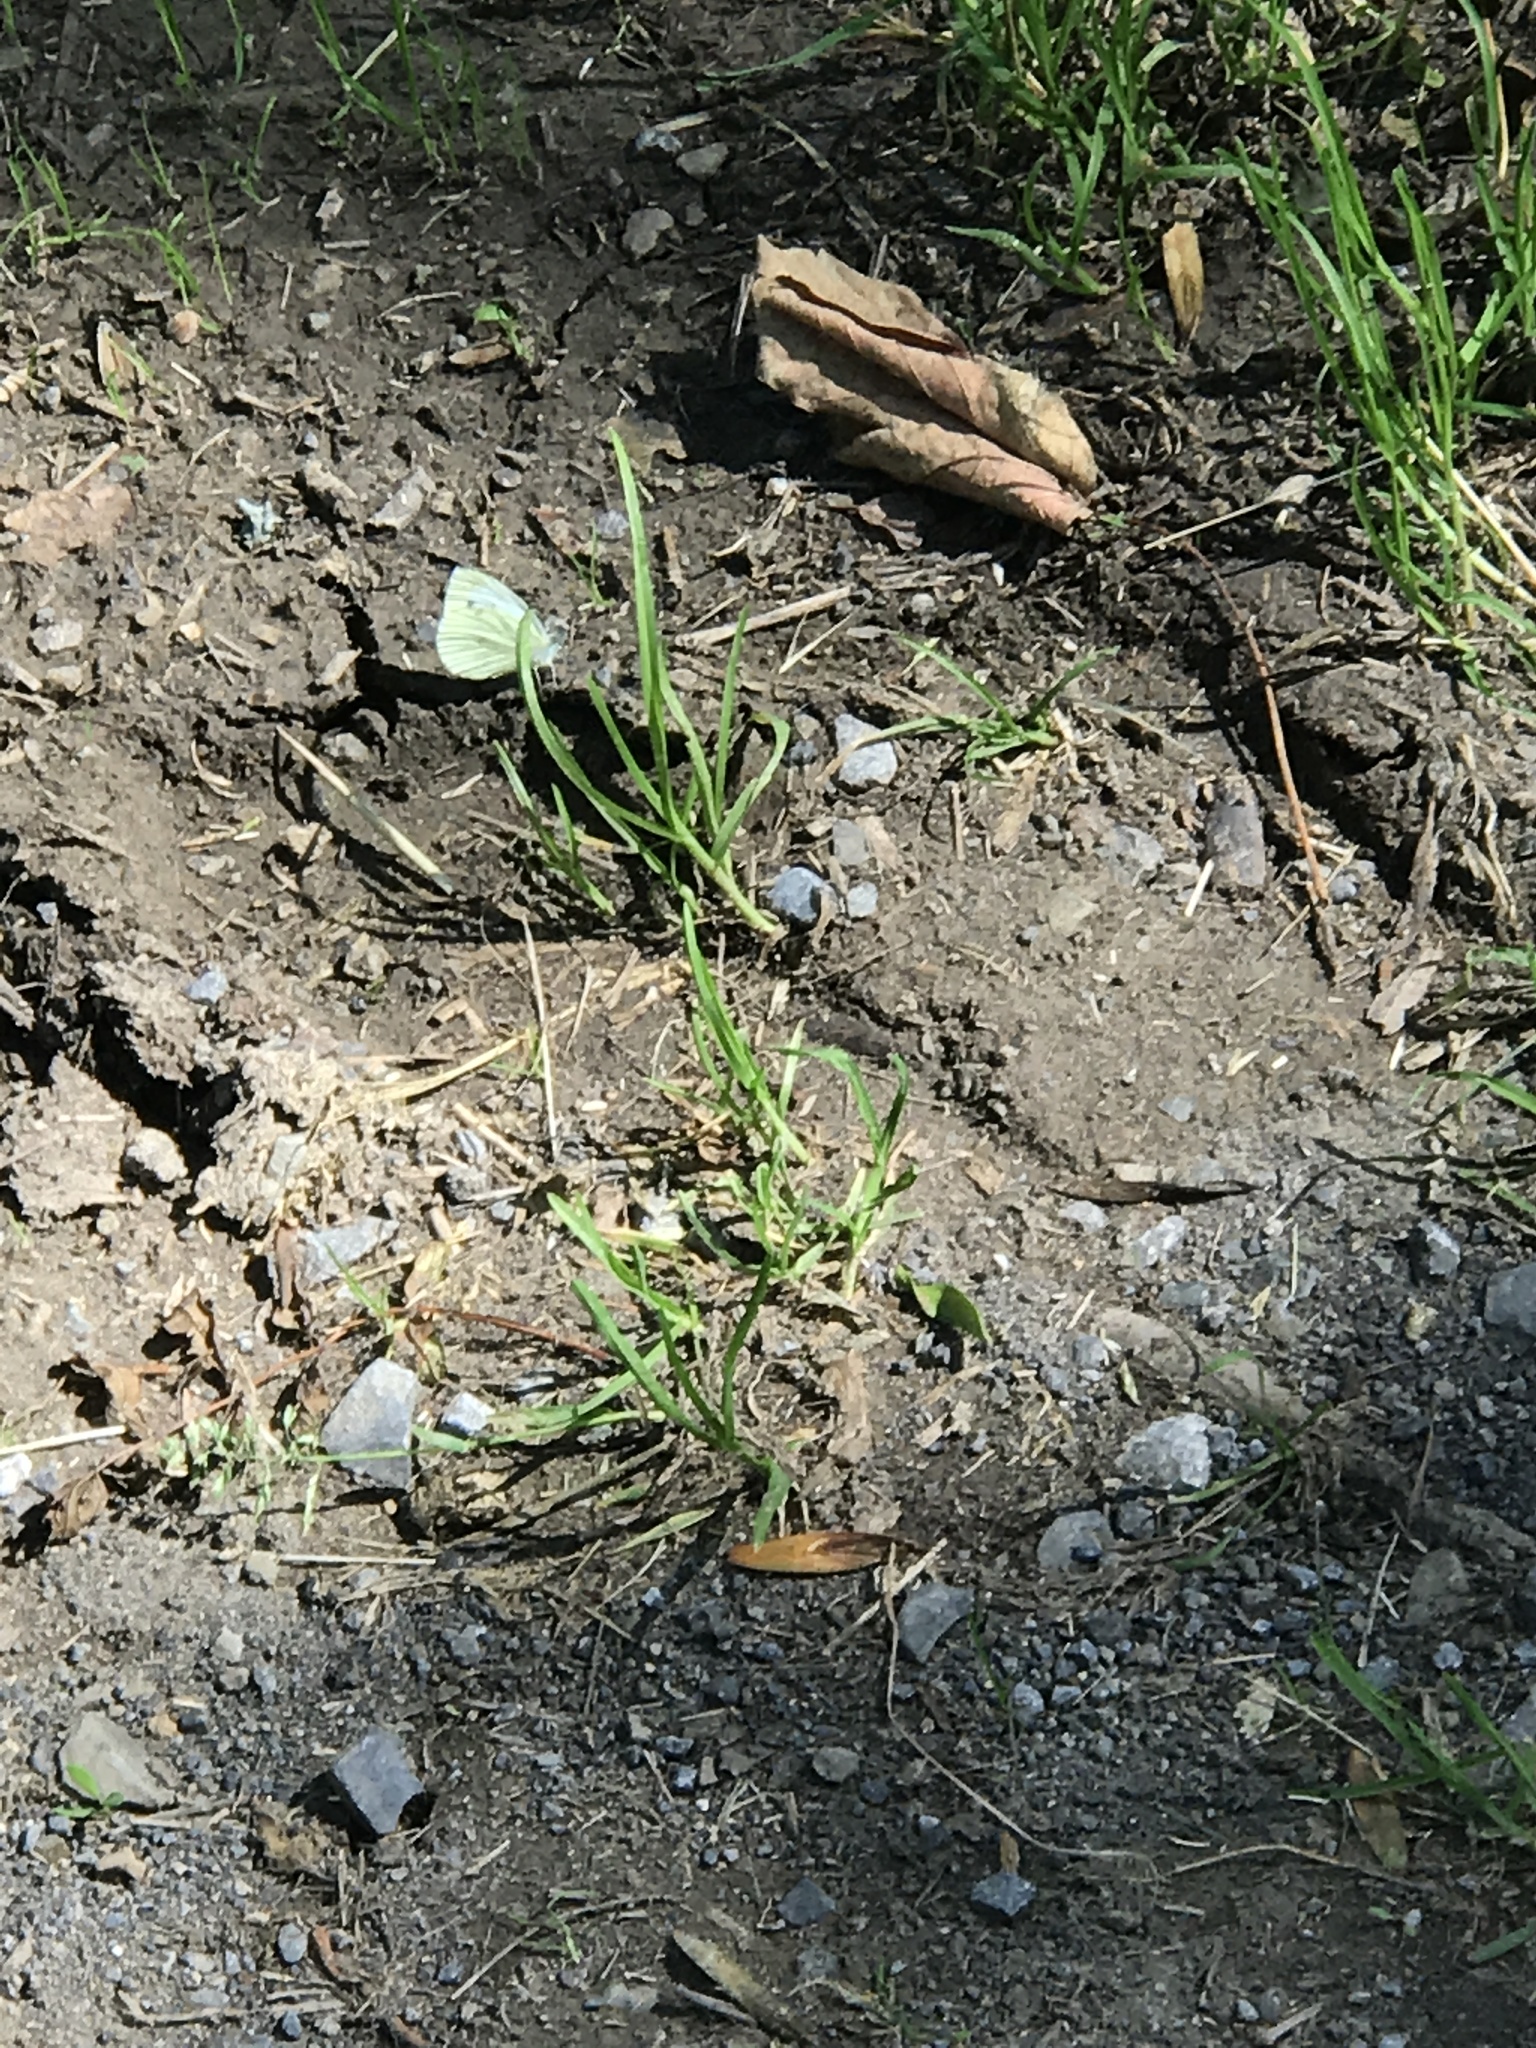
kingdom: Animalia
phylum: Arthropoda
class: Insecta
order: Lepidoptera
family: Pieridae
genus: Pieris
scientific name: Pieris napi
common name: Green-veined white
